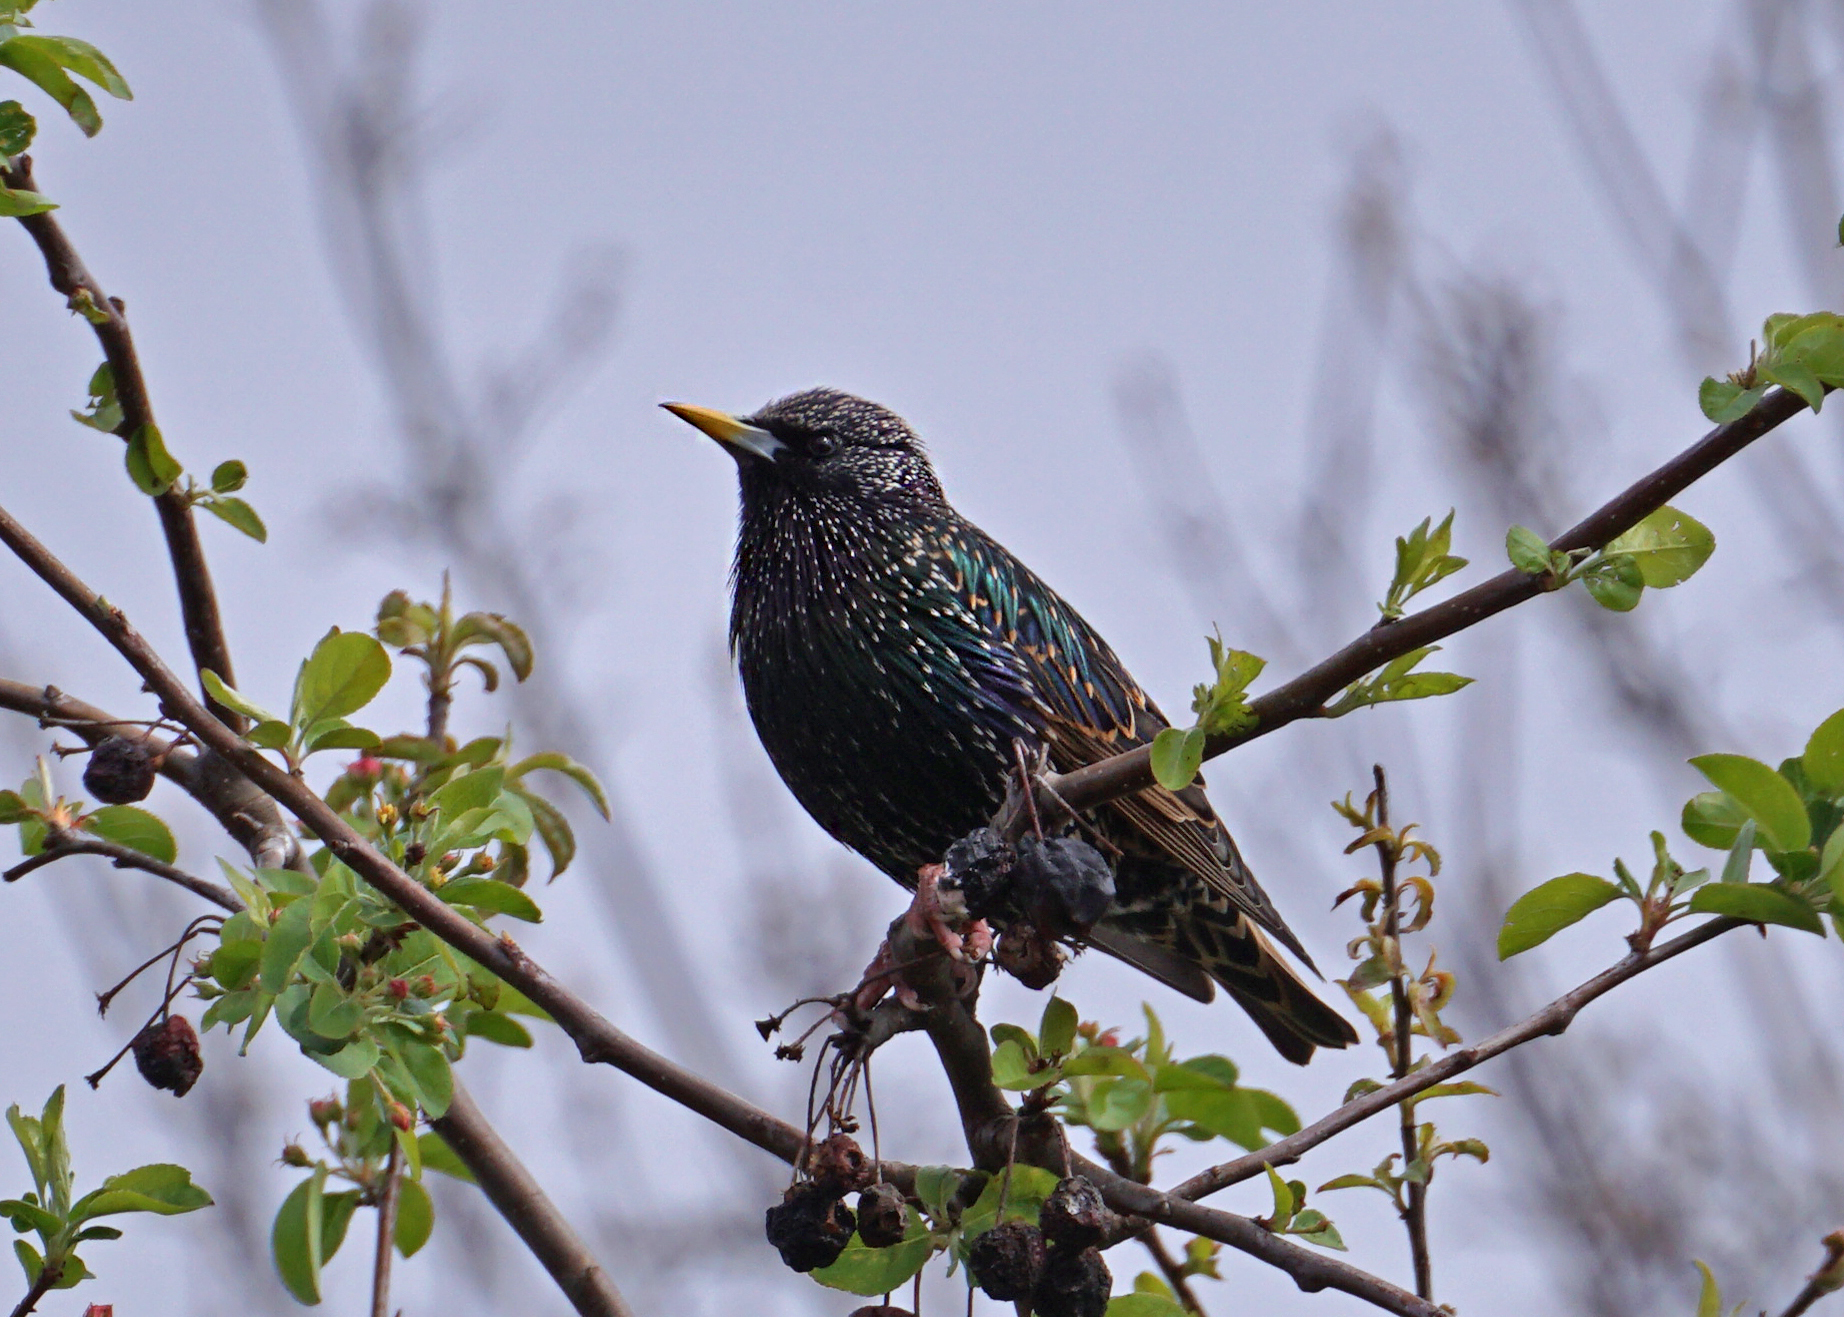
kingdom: Animalia
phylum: Chordata
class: Aves
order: Passeriformes
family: Sturnidae
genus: Sturnus
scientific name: Sturnus vulgaris
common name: Common starling
